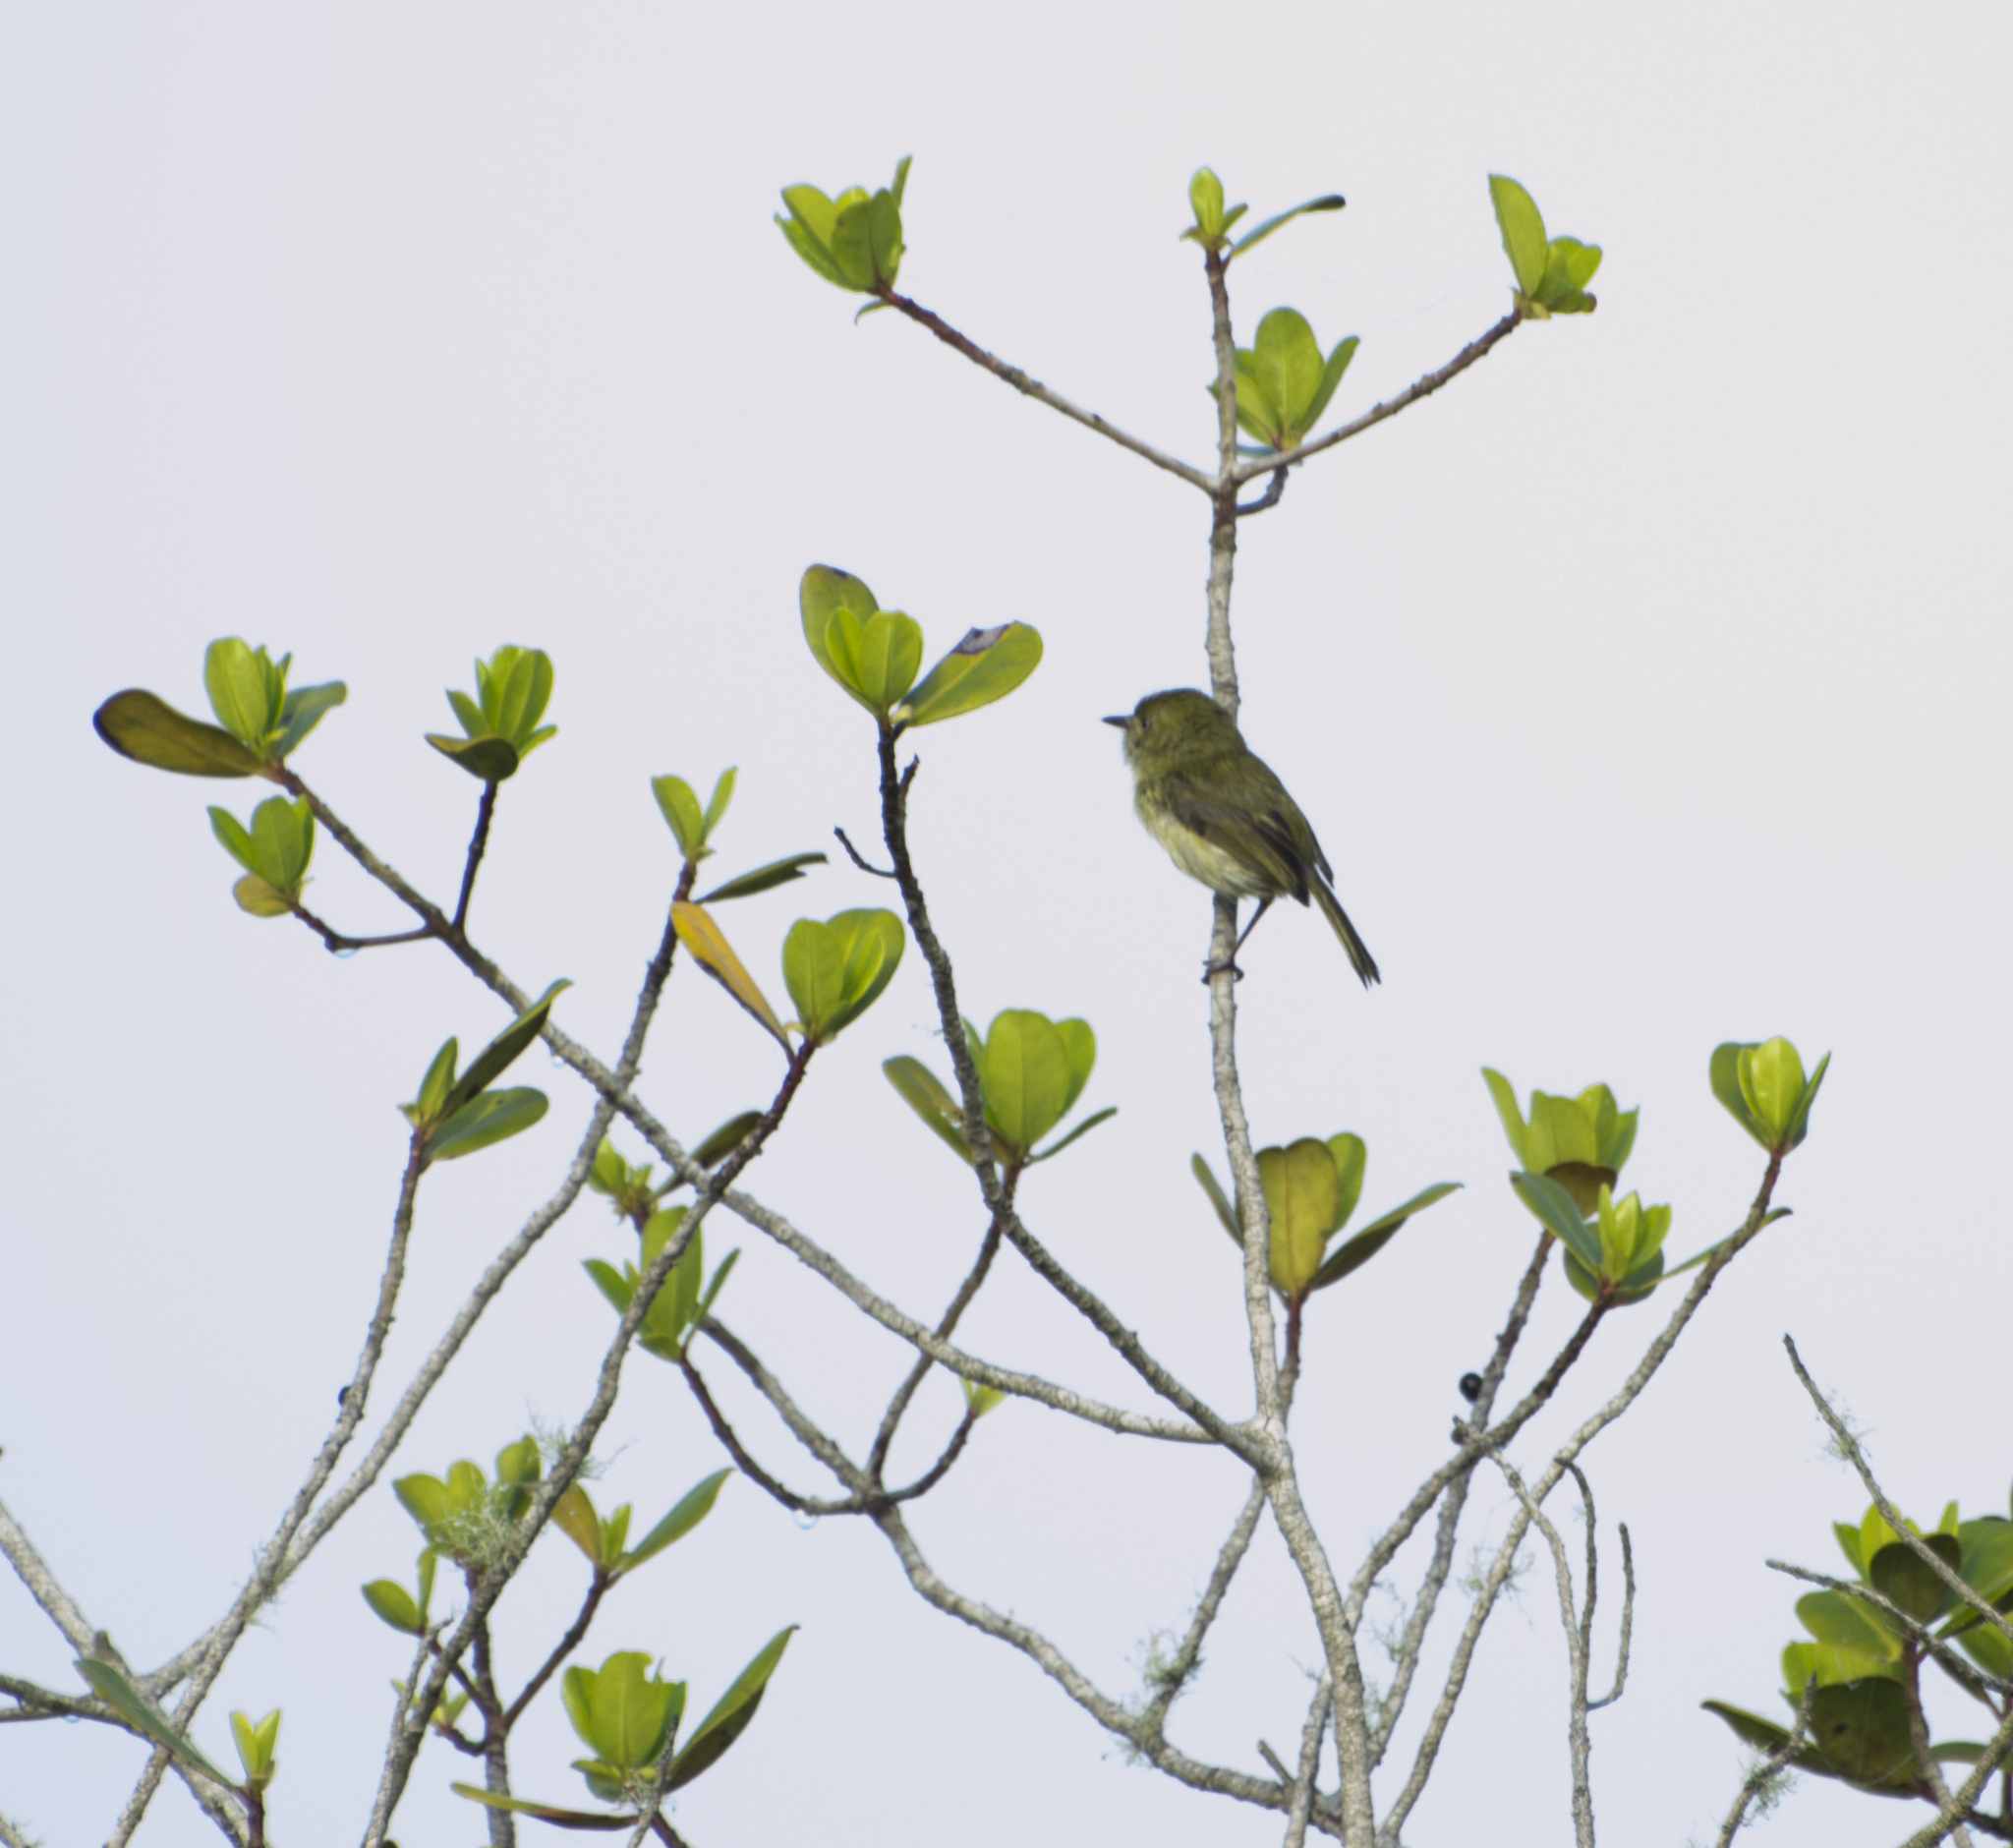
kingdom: Animalia
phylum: Chordata
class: Aves
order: Passeriformes
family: Tyrannidae
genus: Hemitriccus
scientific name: Hemitriccus nidipendulus
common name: Hangnest tody-tyrant
